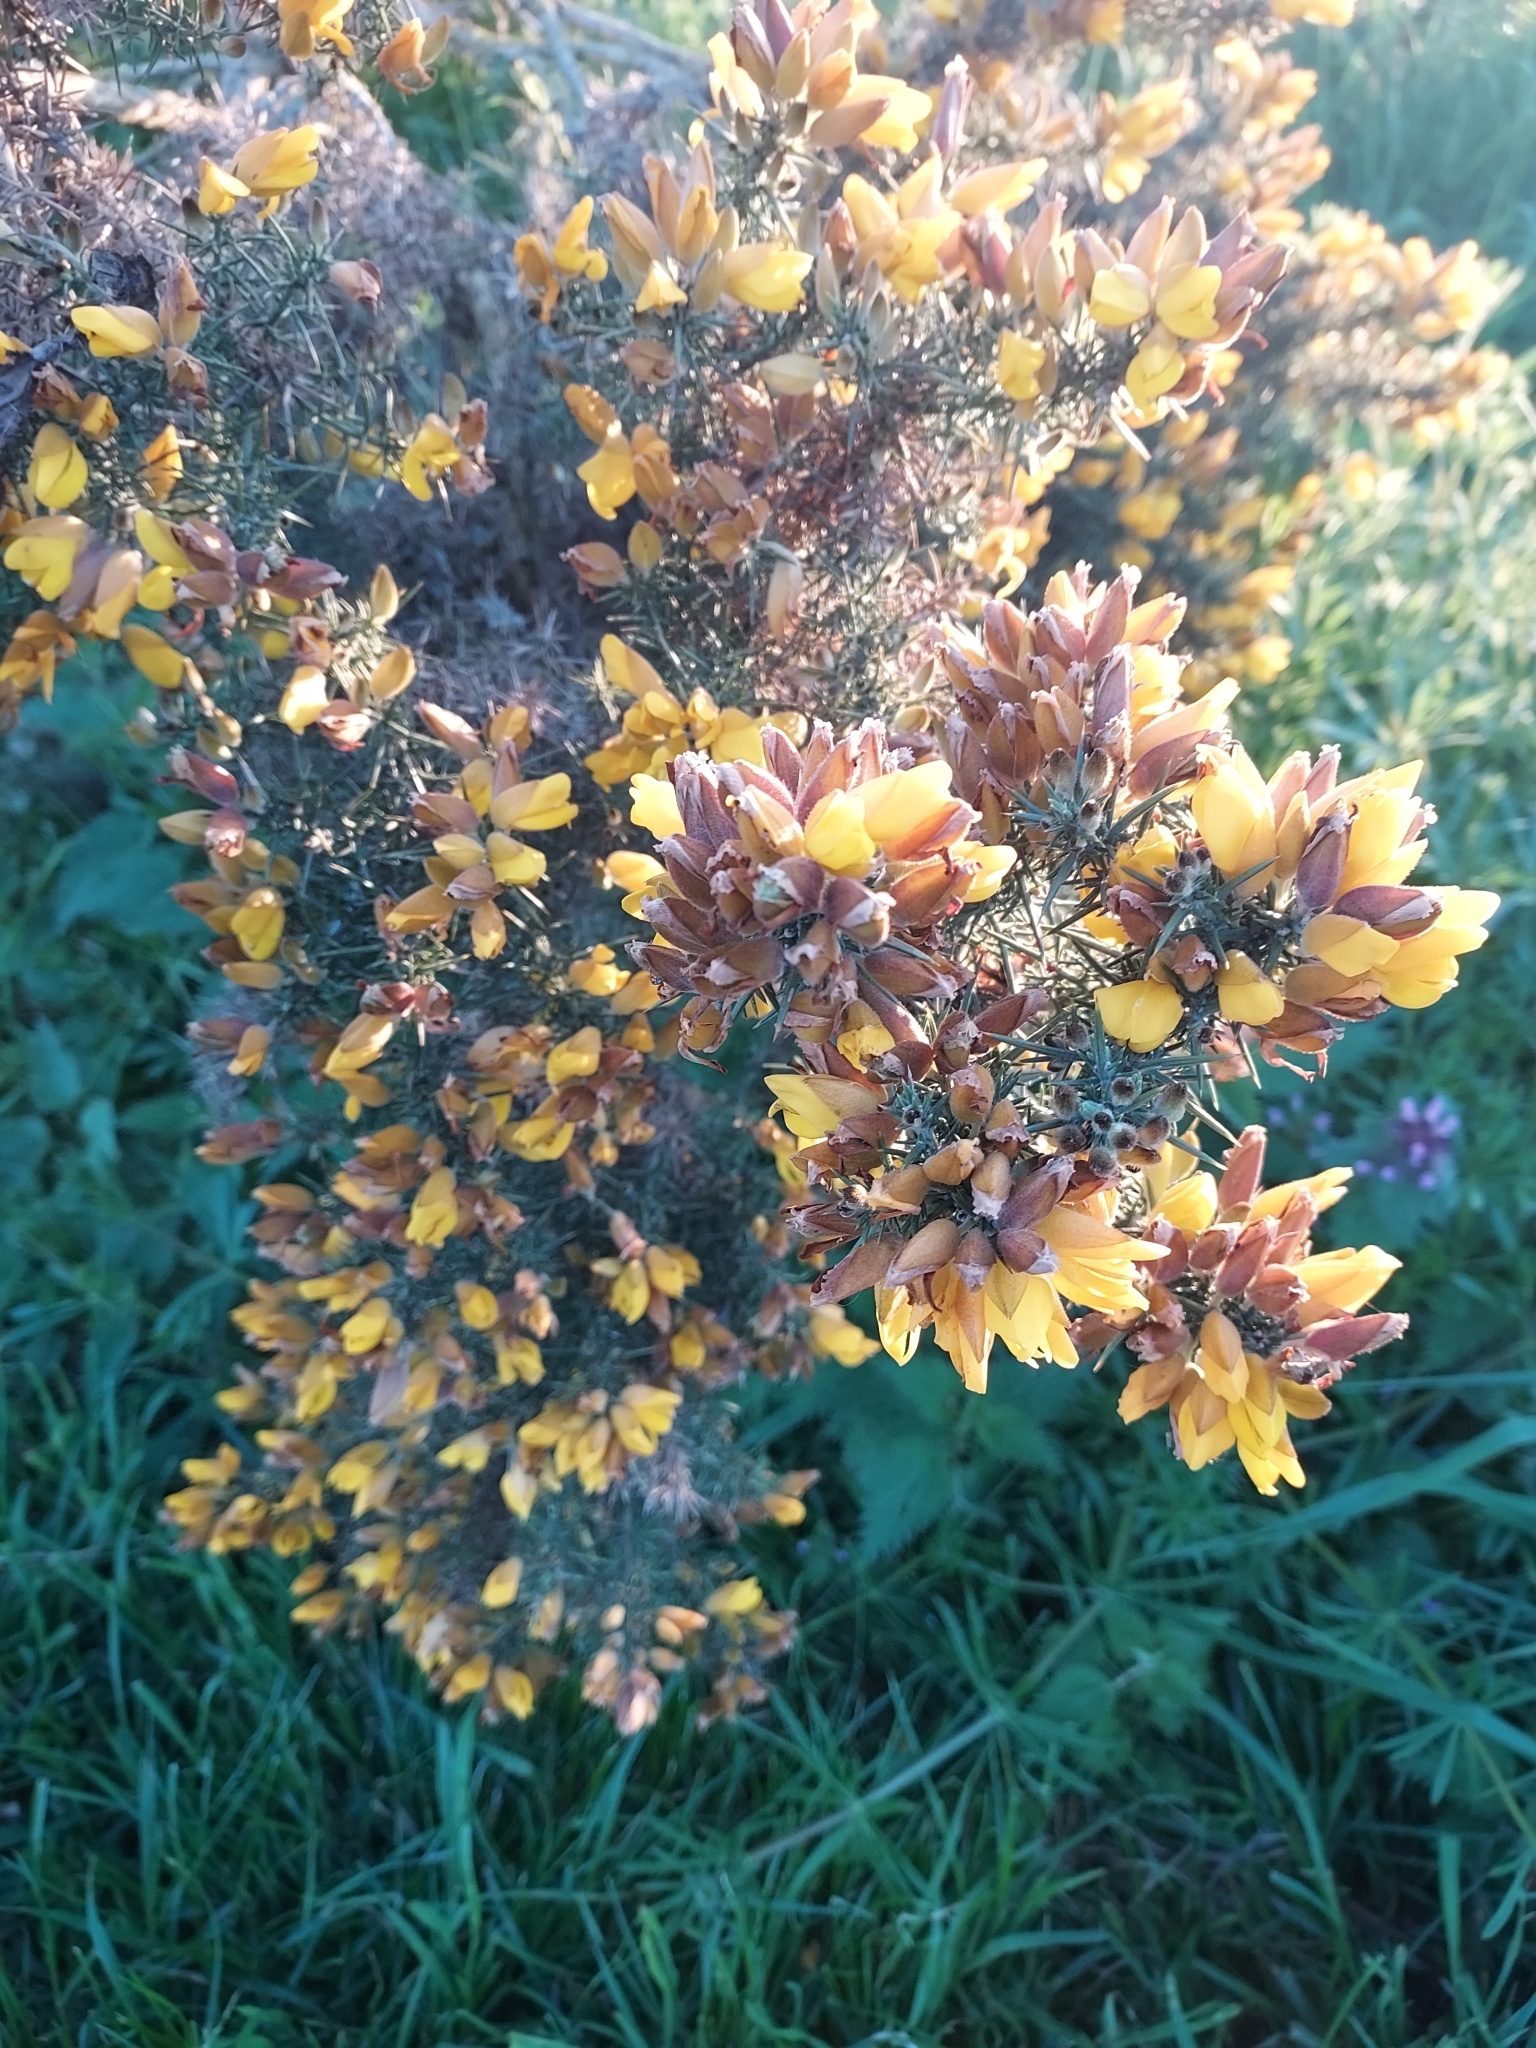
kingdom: Plantae
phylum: Tracheophyta
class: Magnoliopsida
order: Fabales
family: Fabaceae
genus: Ulex
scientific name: Ulex europaeus
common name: Common gorse
